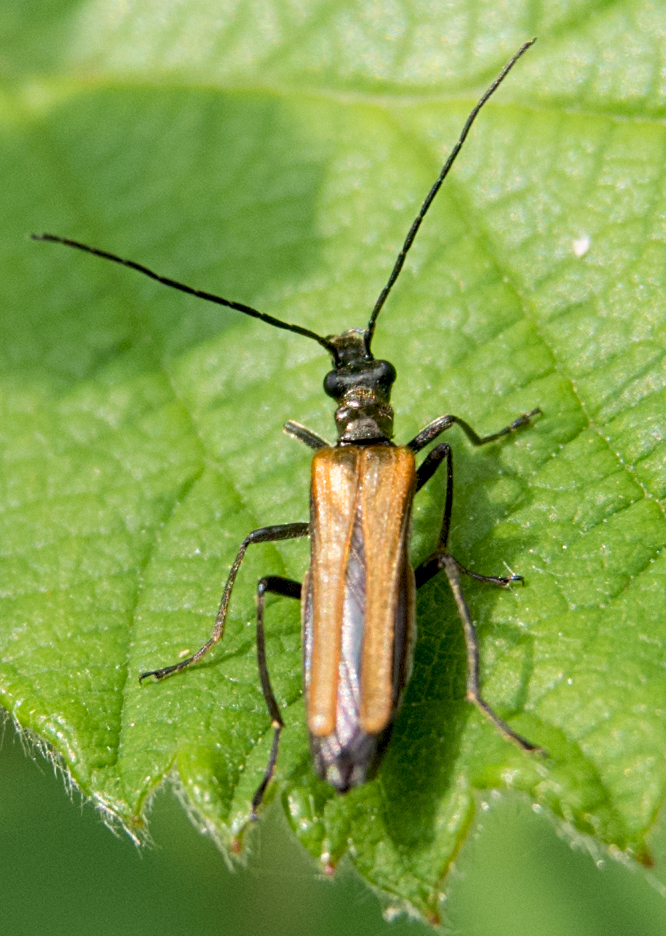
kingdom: Animalia
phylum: Arthropoda
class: Insecta
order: Coleoptera
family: Oedemeridae
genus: Oedemera
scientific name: Oedemera femorata
